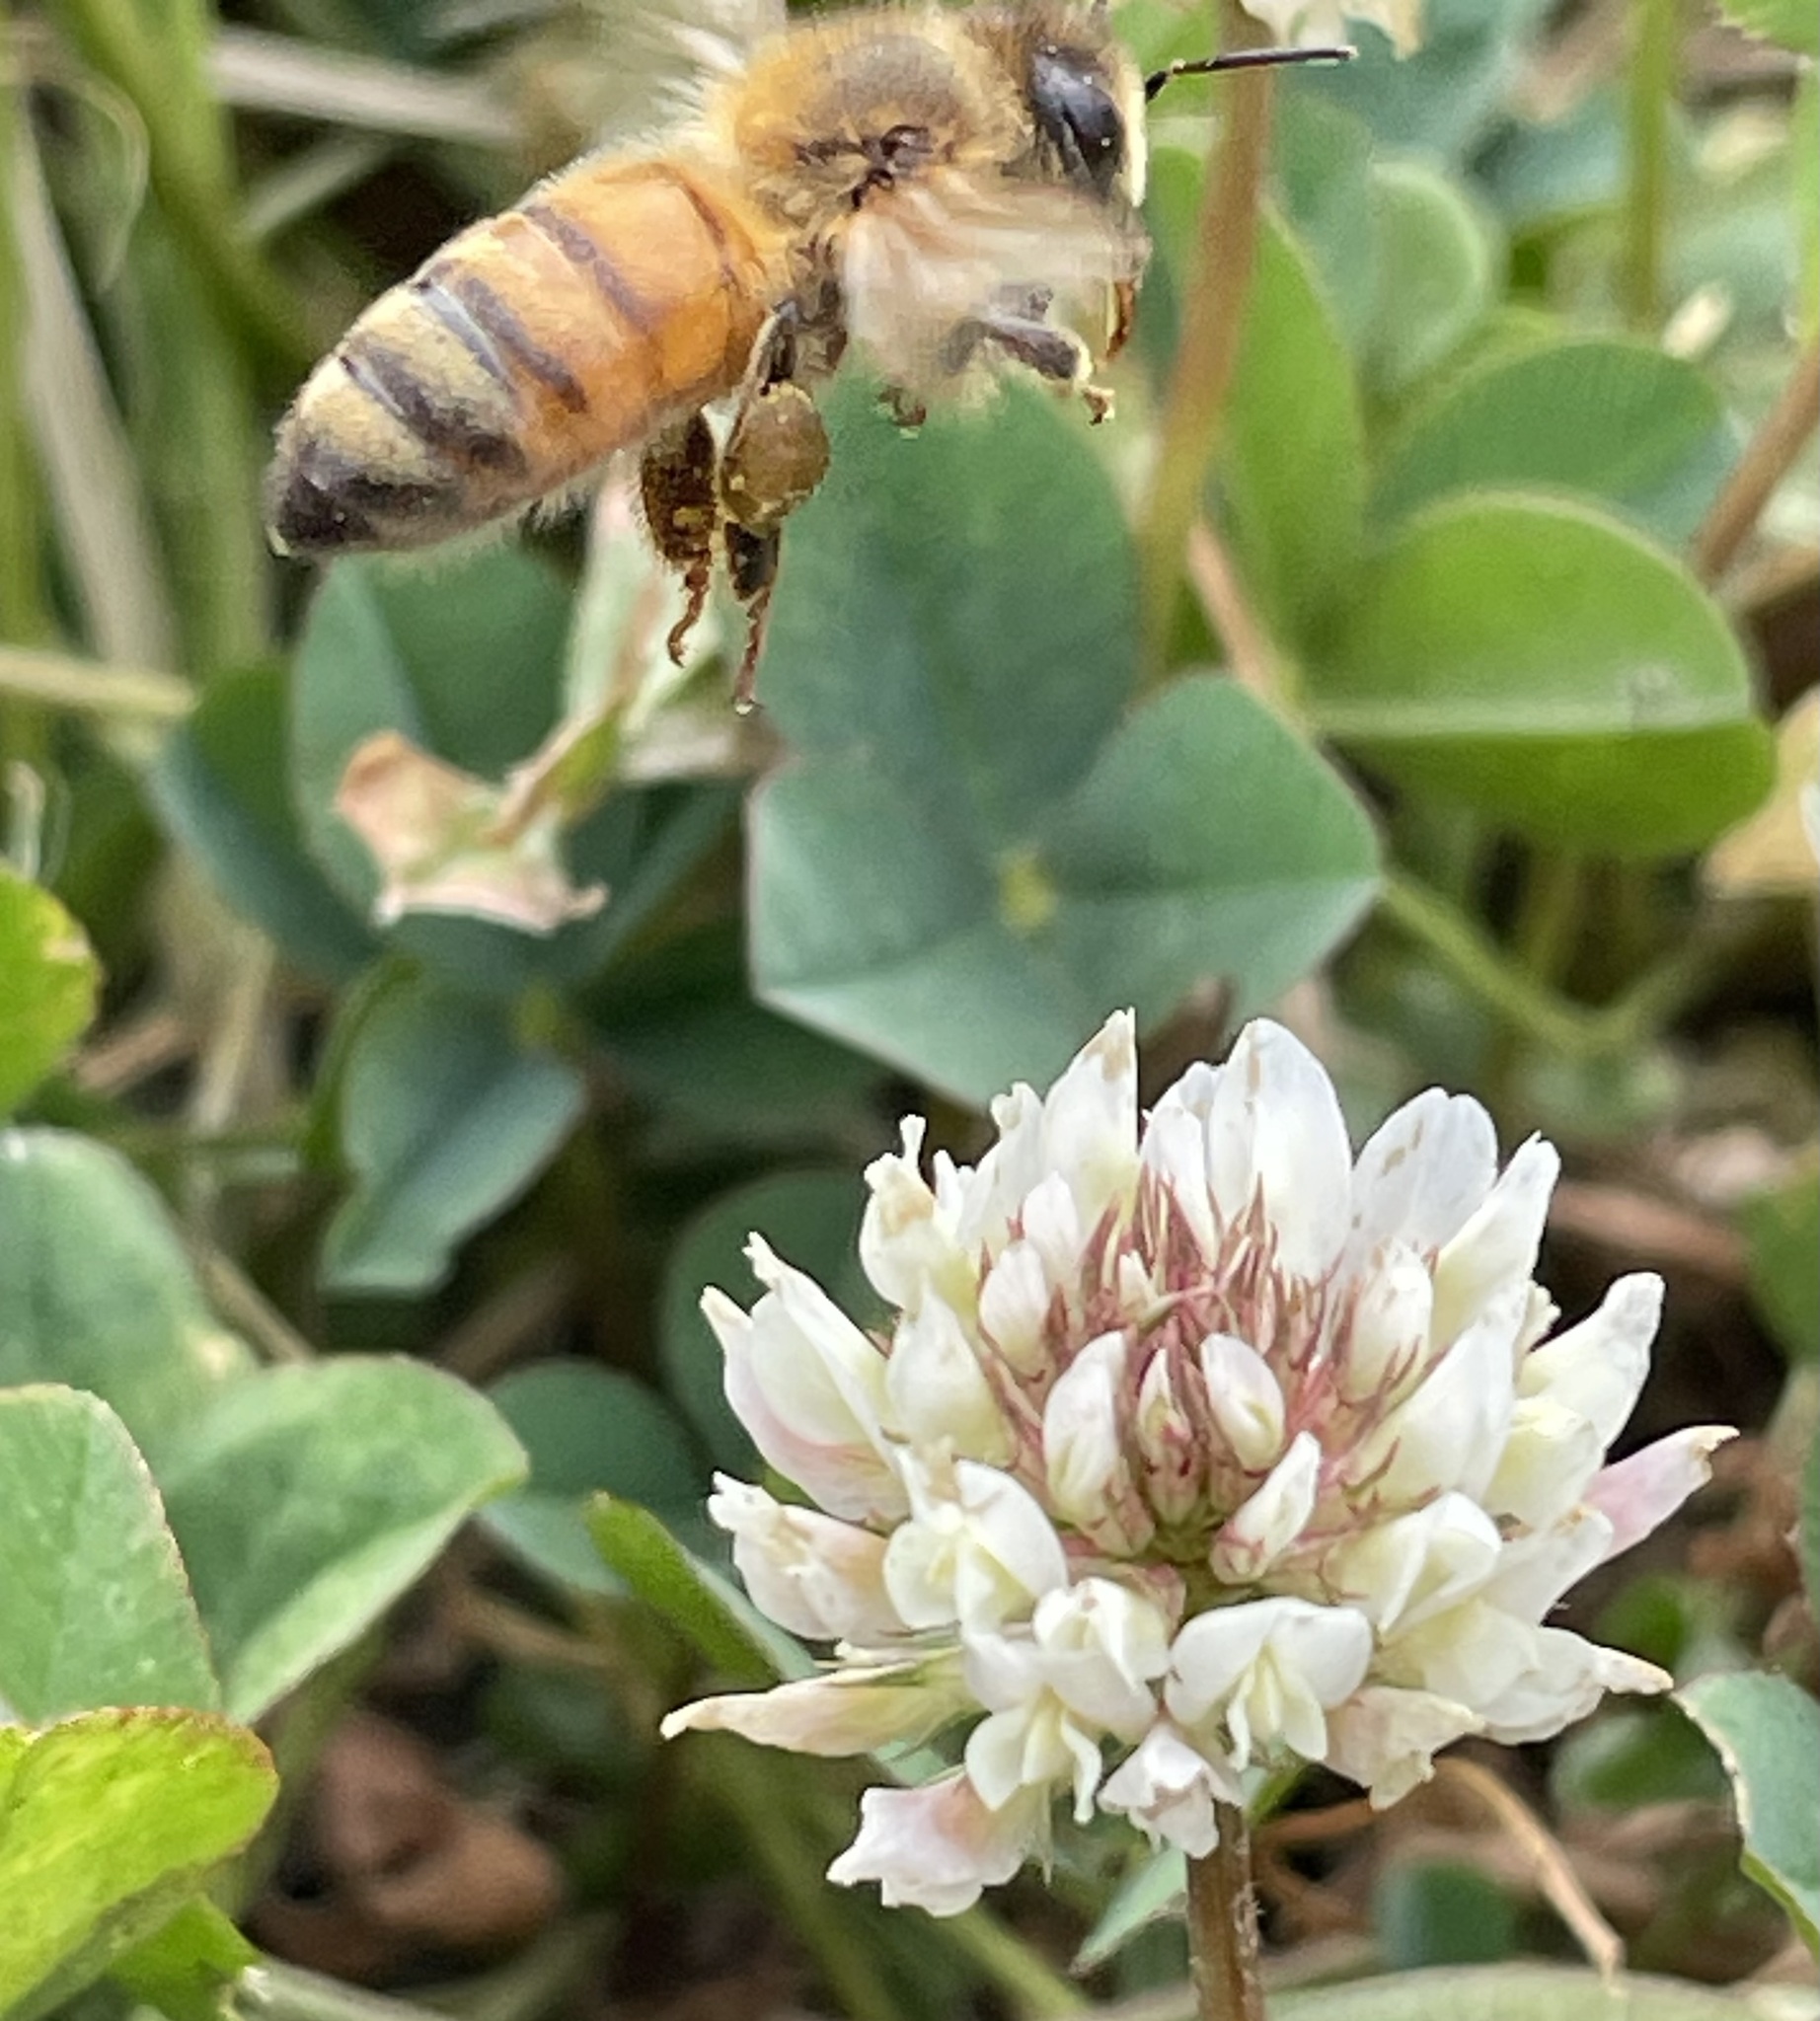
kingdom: Animalia
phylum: Arthropoda
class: Insecta
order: Hymenoptera
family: Apidae
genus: Apis
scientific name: Apis mellifera
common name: Honey bee
